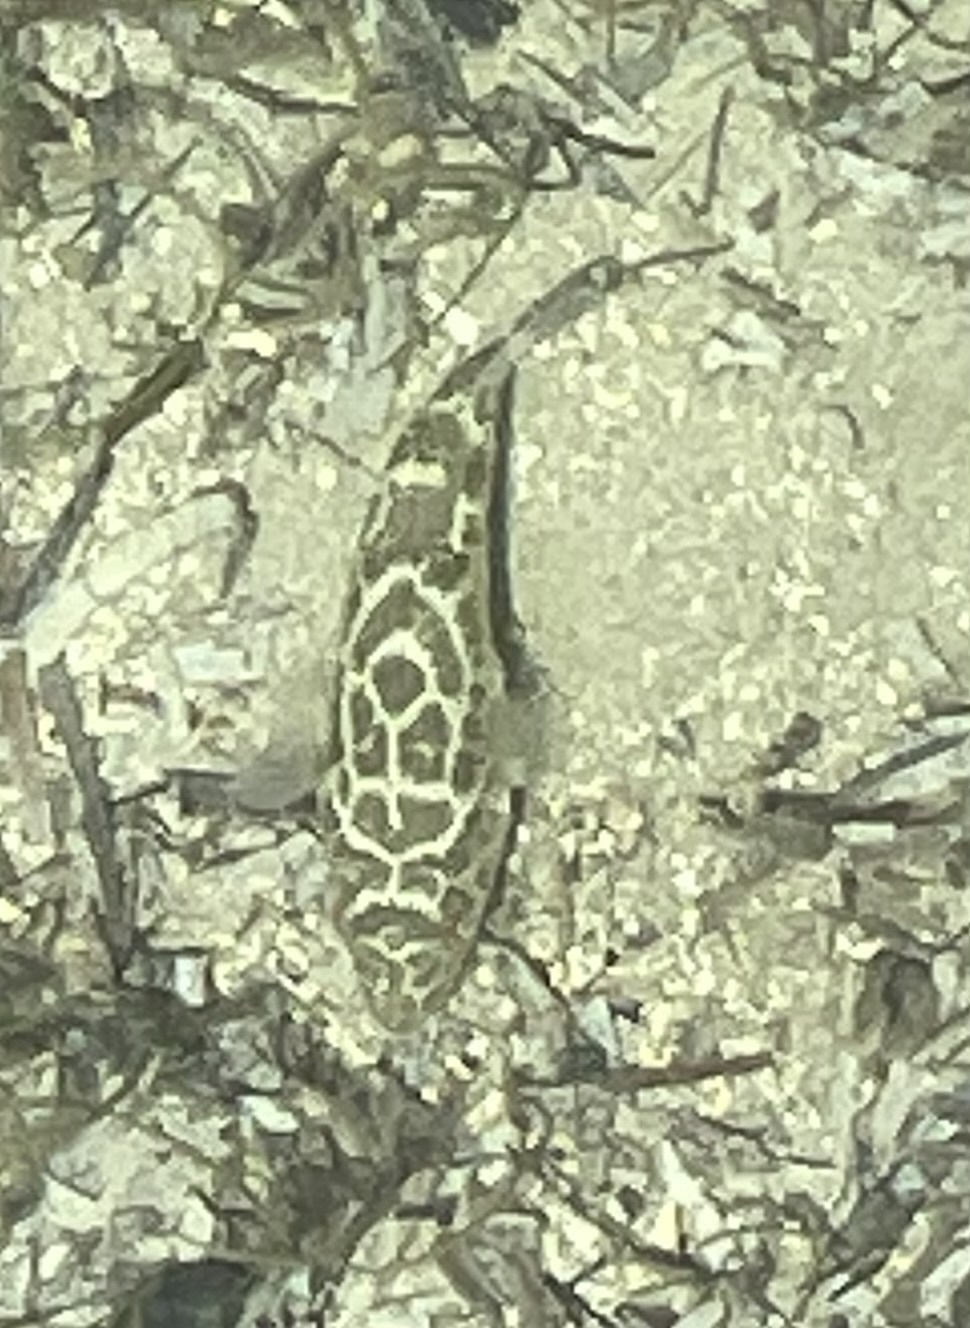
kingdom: Animalia
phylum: Chordata
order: Tetraodontiformes
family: Tetraodontidae
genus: Sphoeroides
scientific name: Sphoeroides testudineus
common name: Checkered puffer
